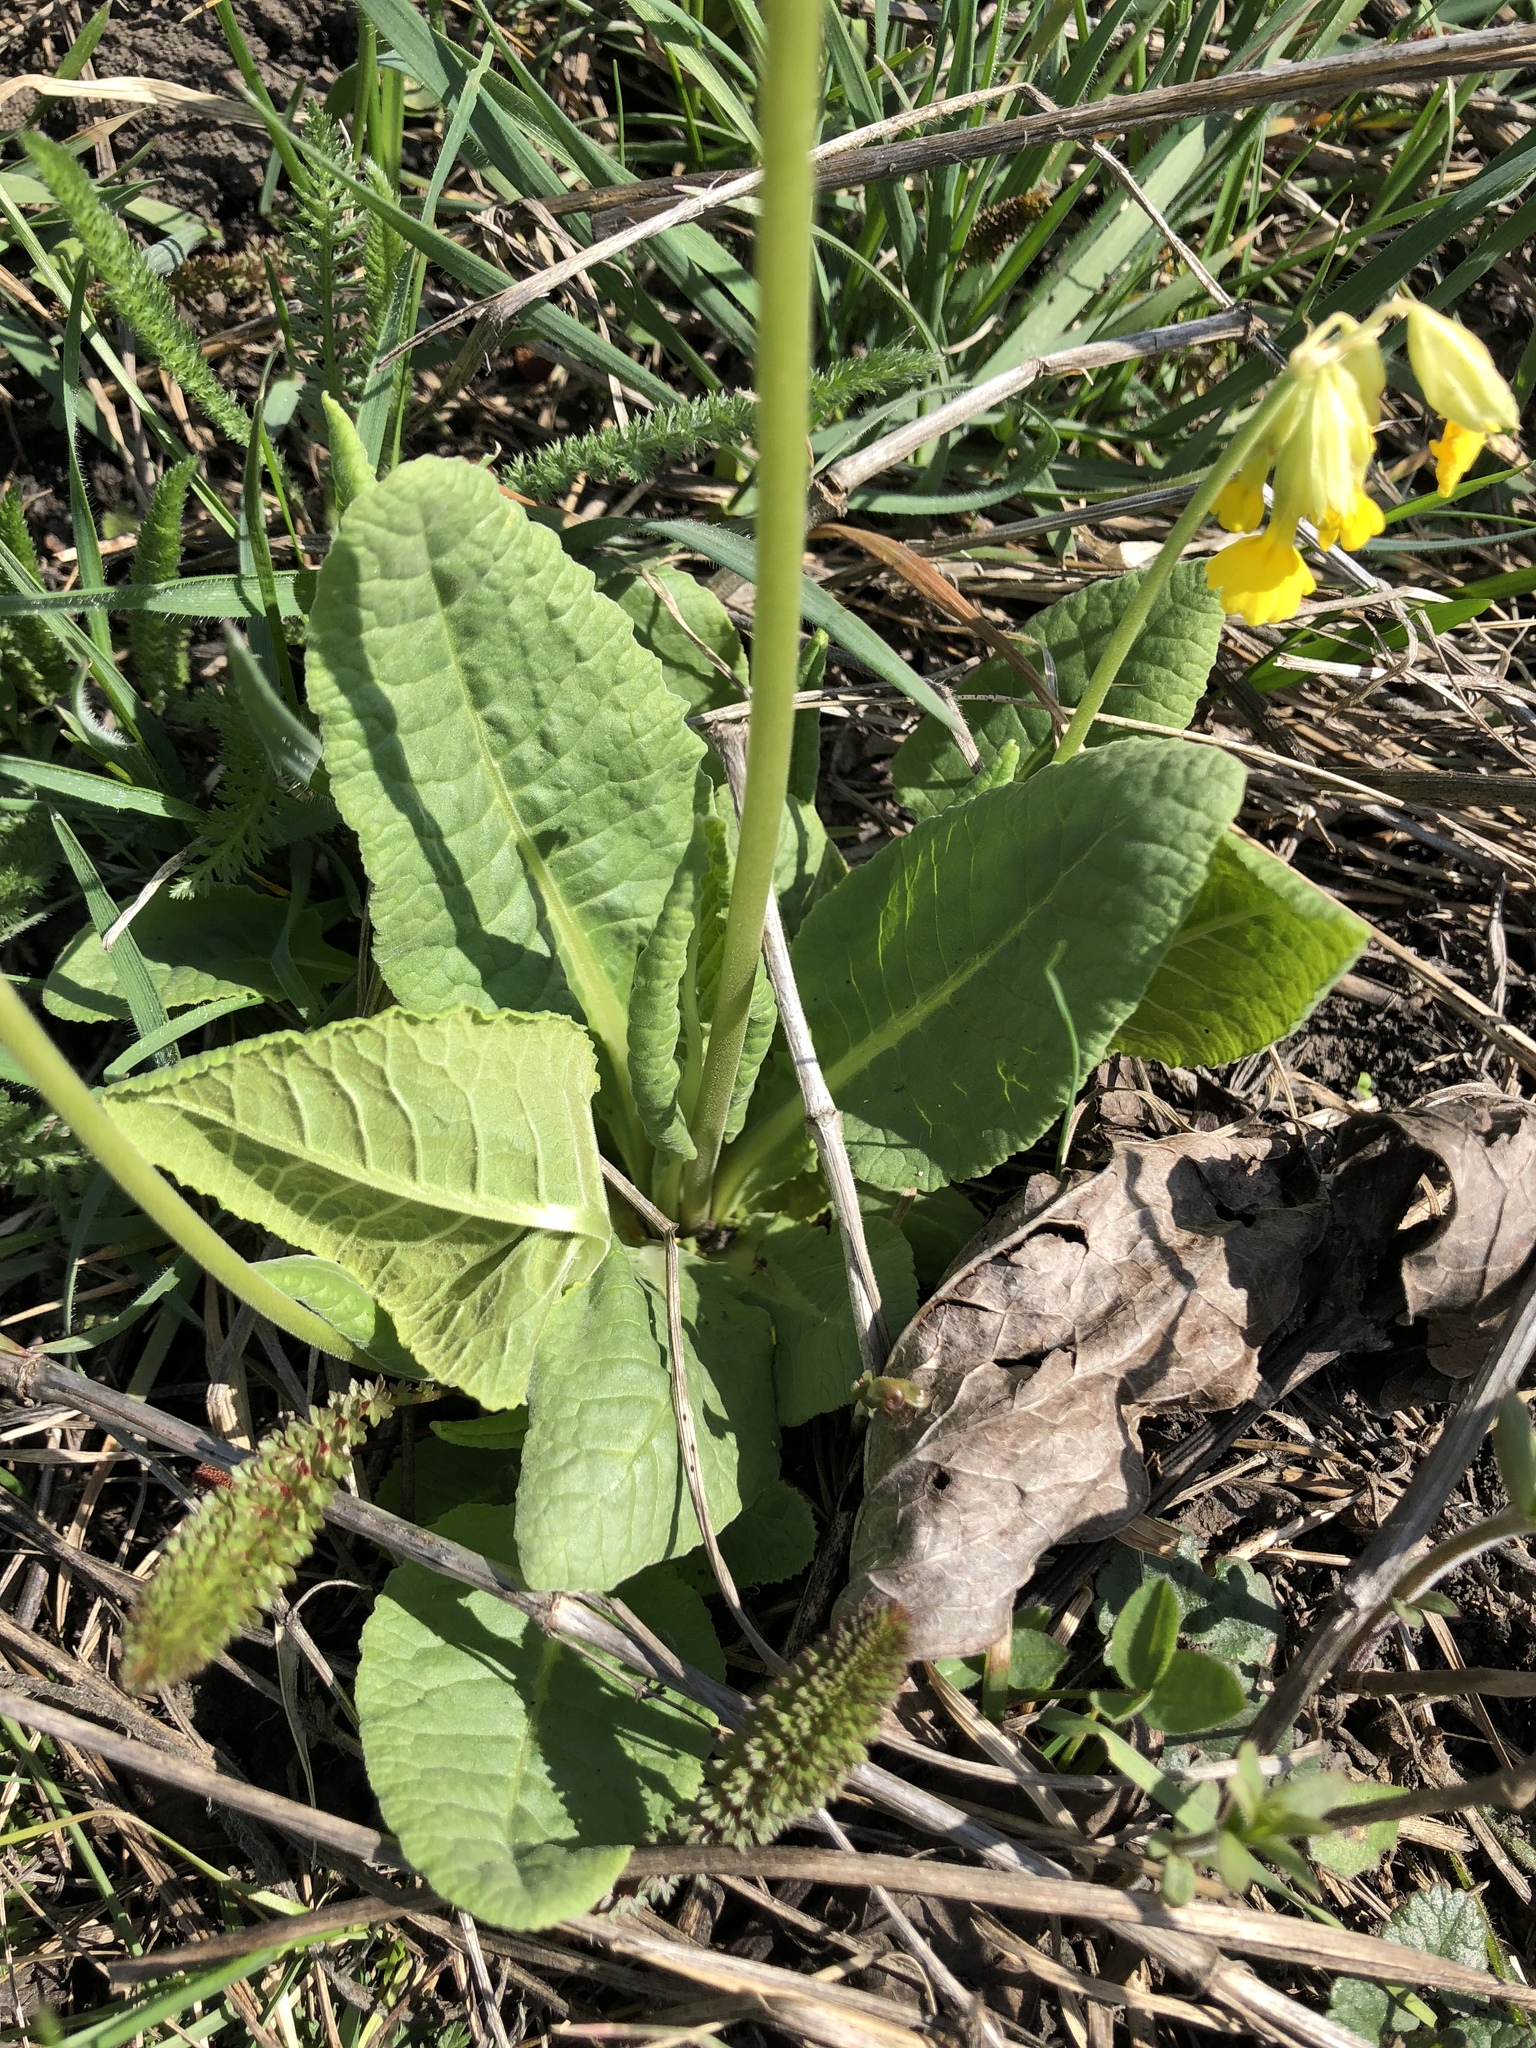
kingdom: Plantae
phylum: Tracheophyta
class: Magnoliopsida
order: Ericales
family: Primulaceae
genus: Primula
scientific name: Primula veris
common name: Cowslip
